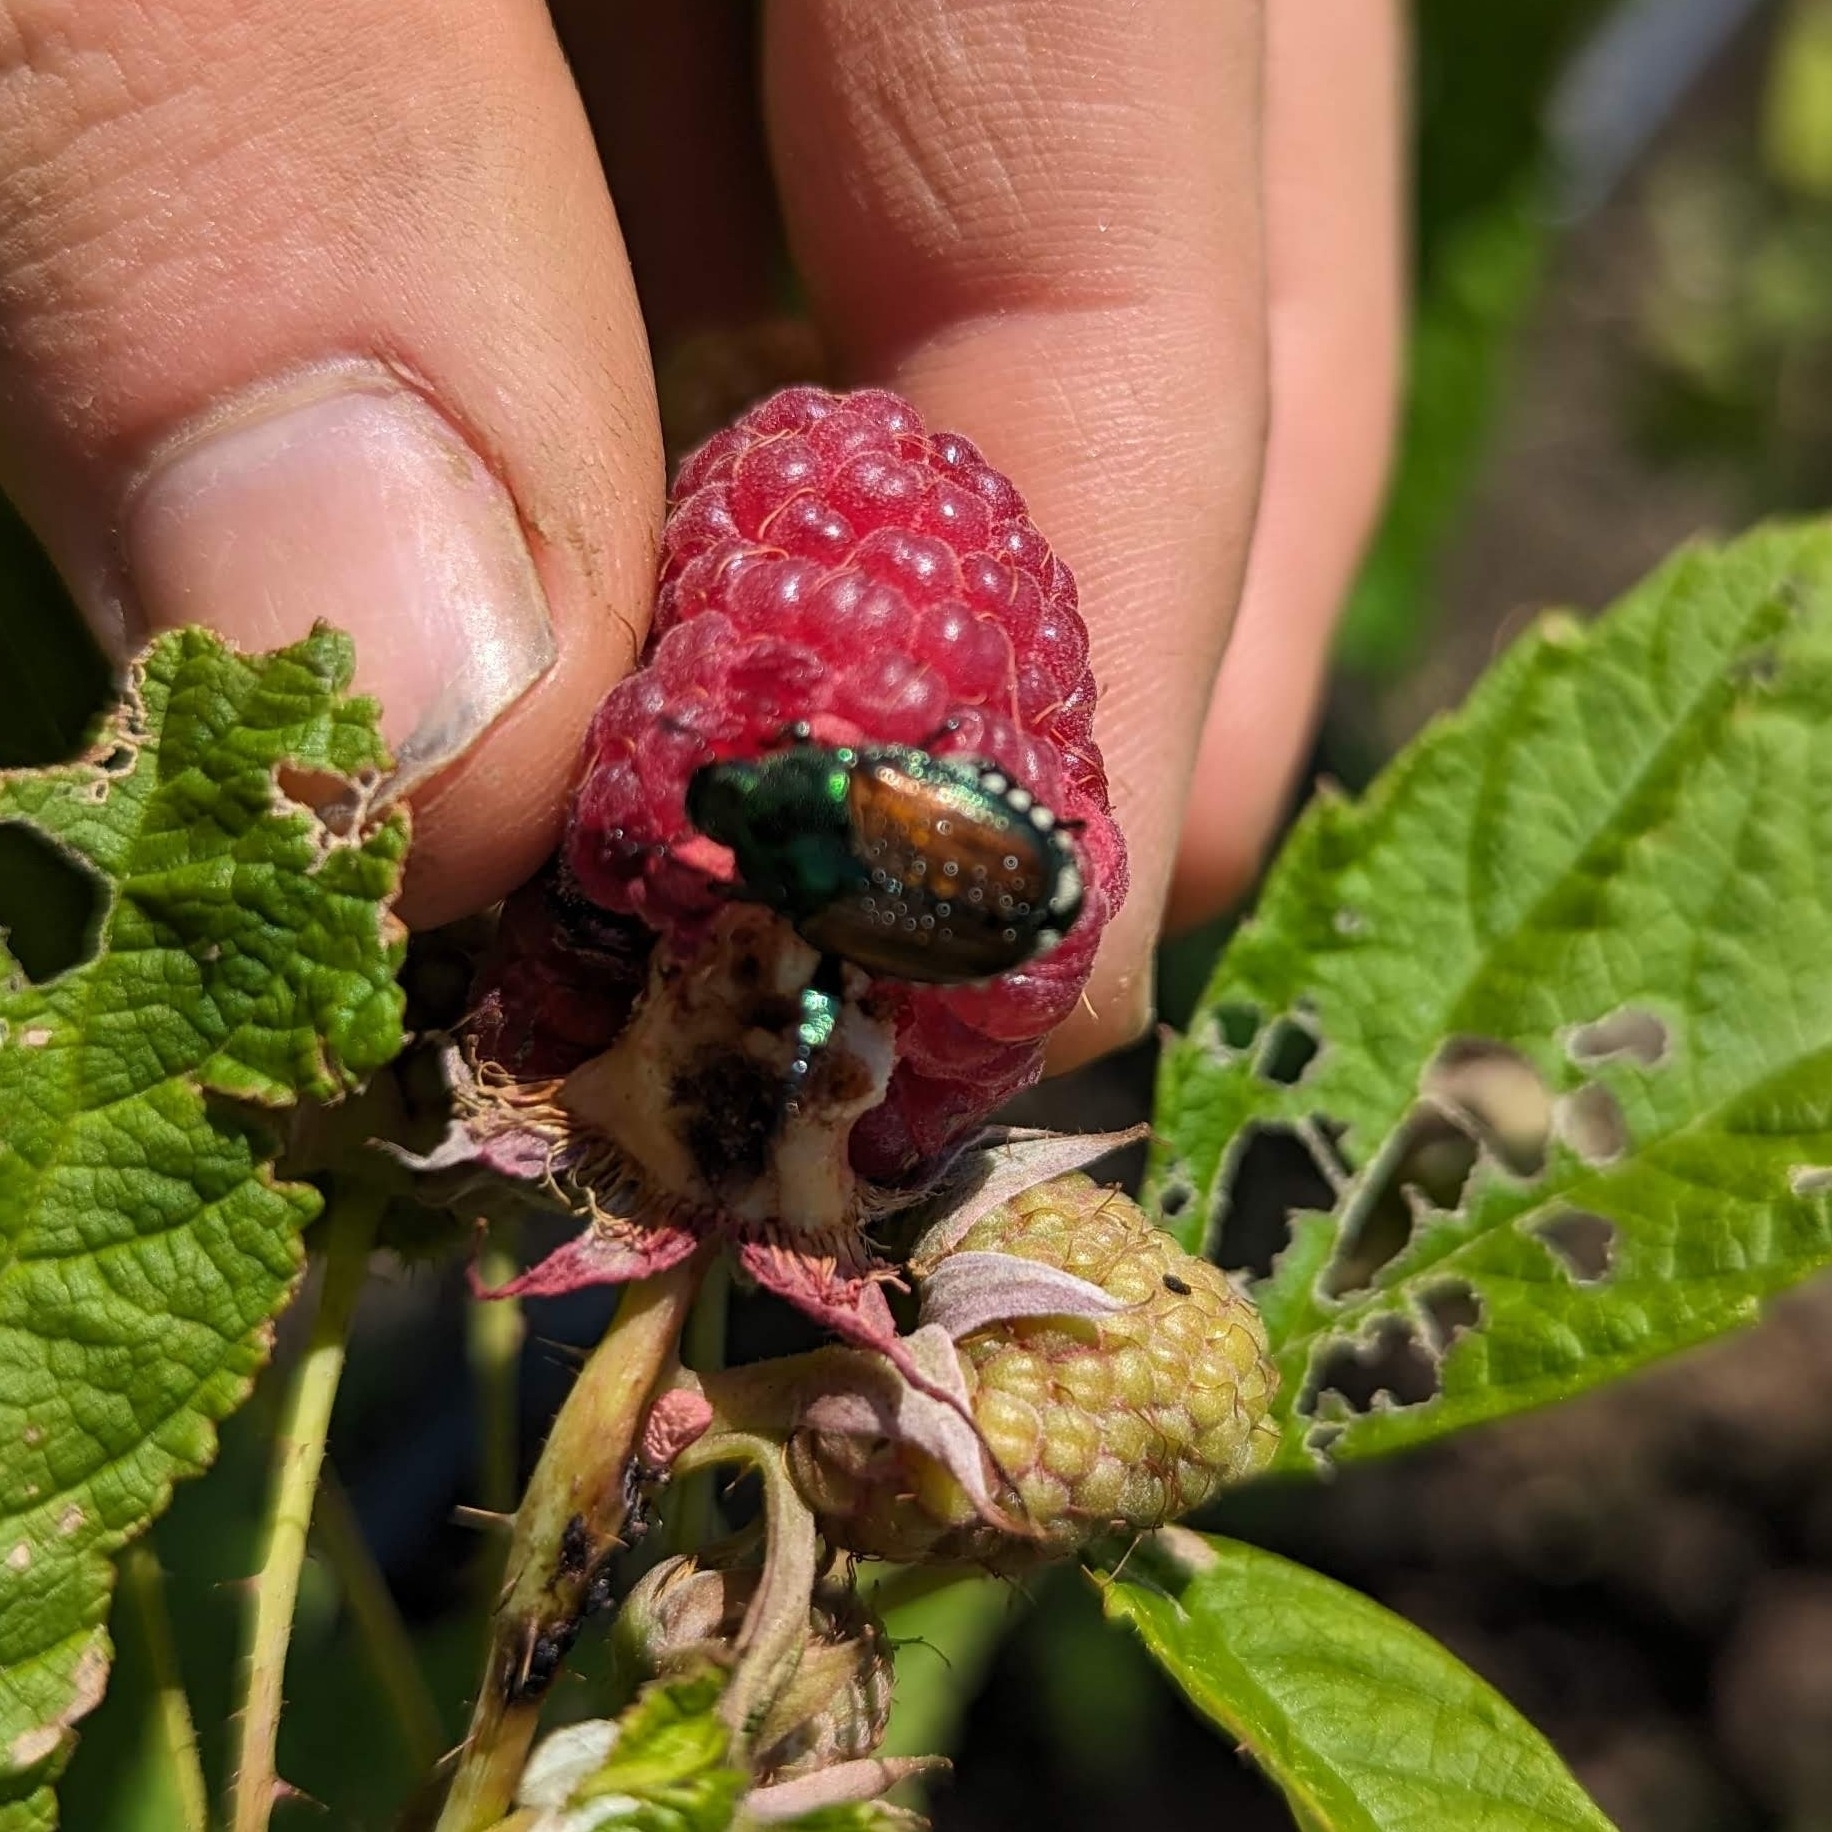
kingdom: Animalia
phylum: Arthropoda
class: Insecta
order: Coleoptera
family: Scarabaeidae
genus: Popillia
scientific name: Popillia japonica
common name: Japanese beetle
